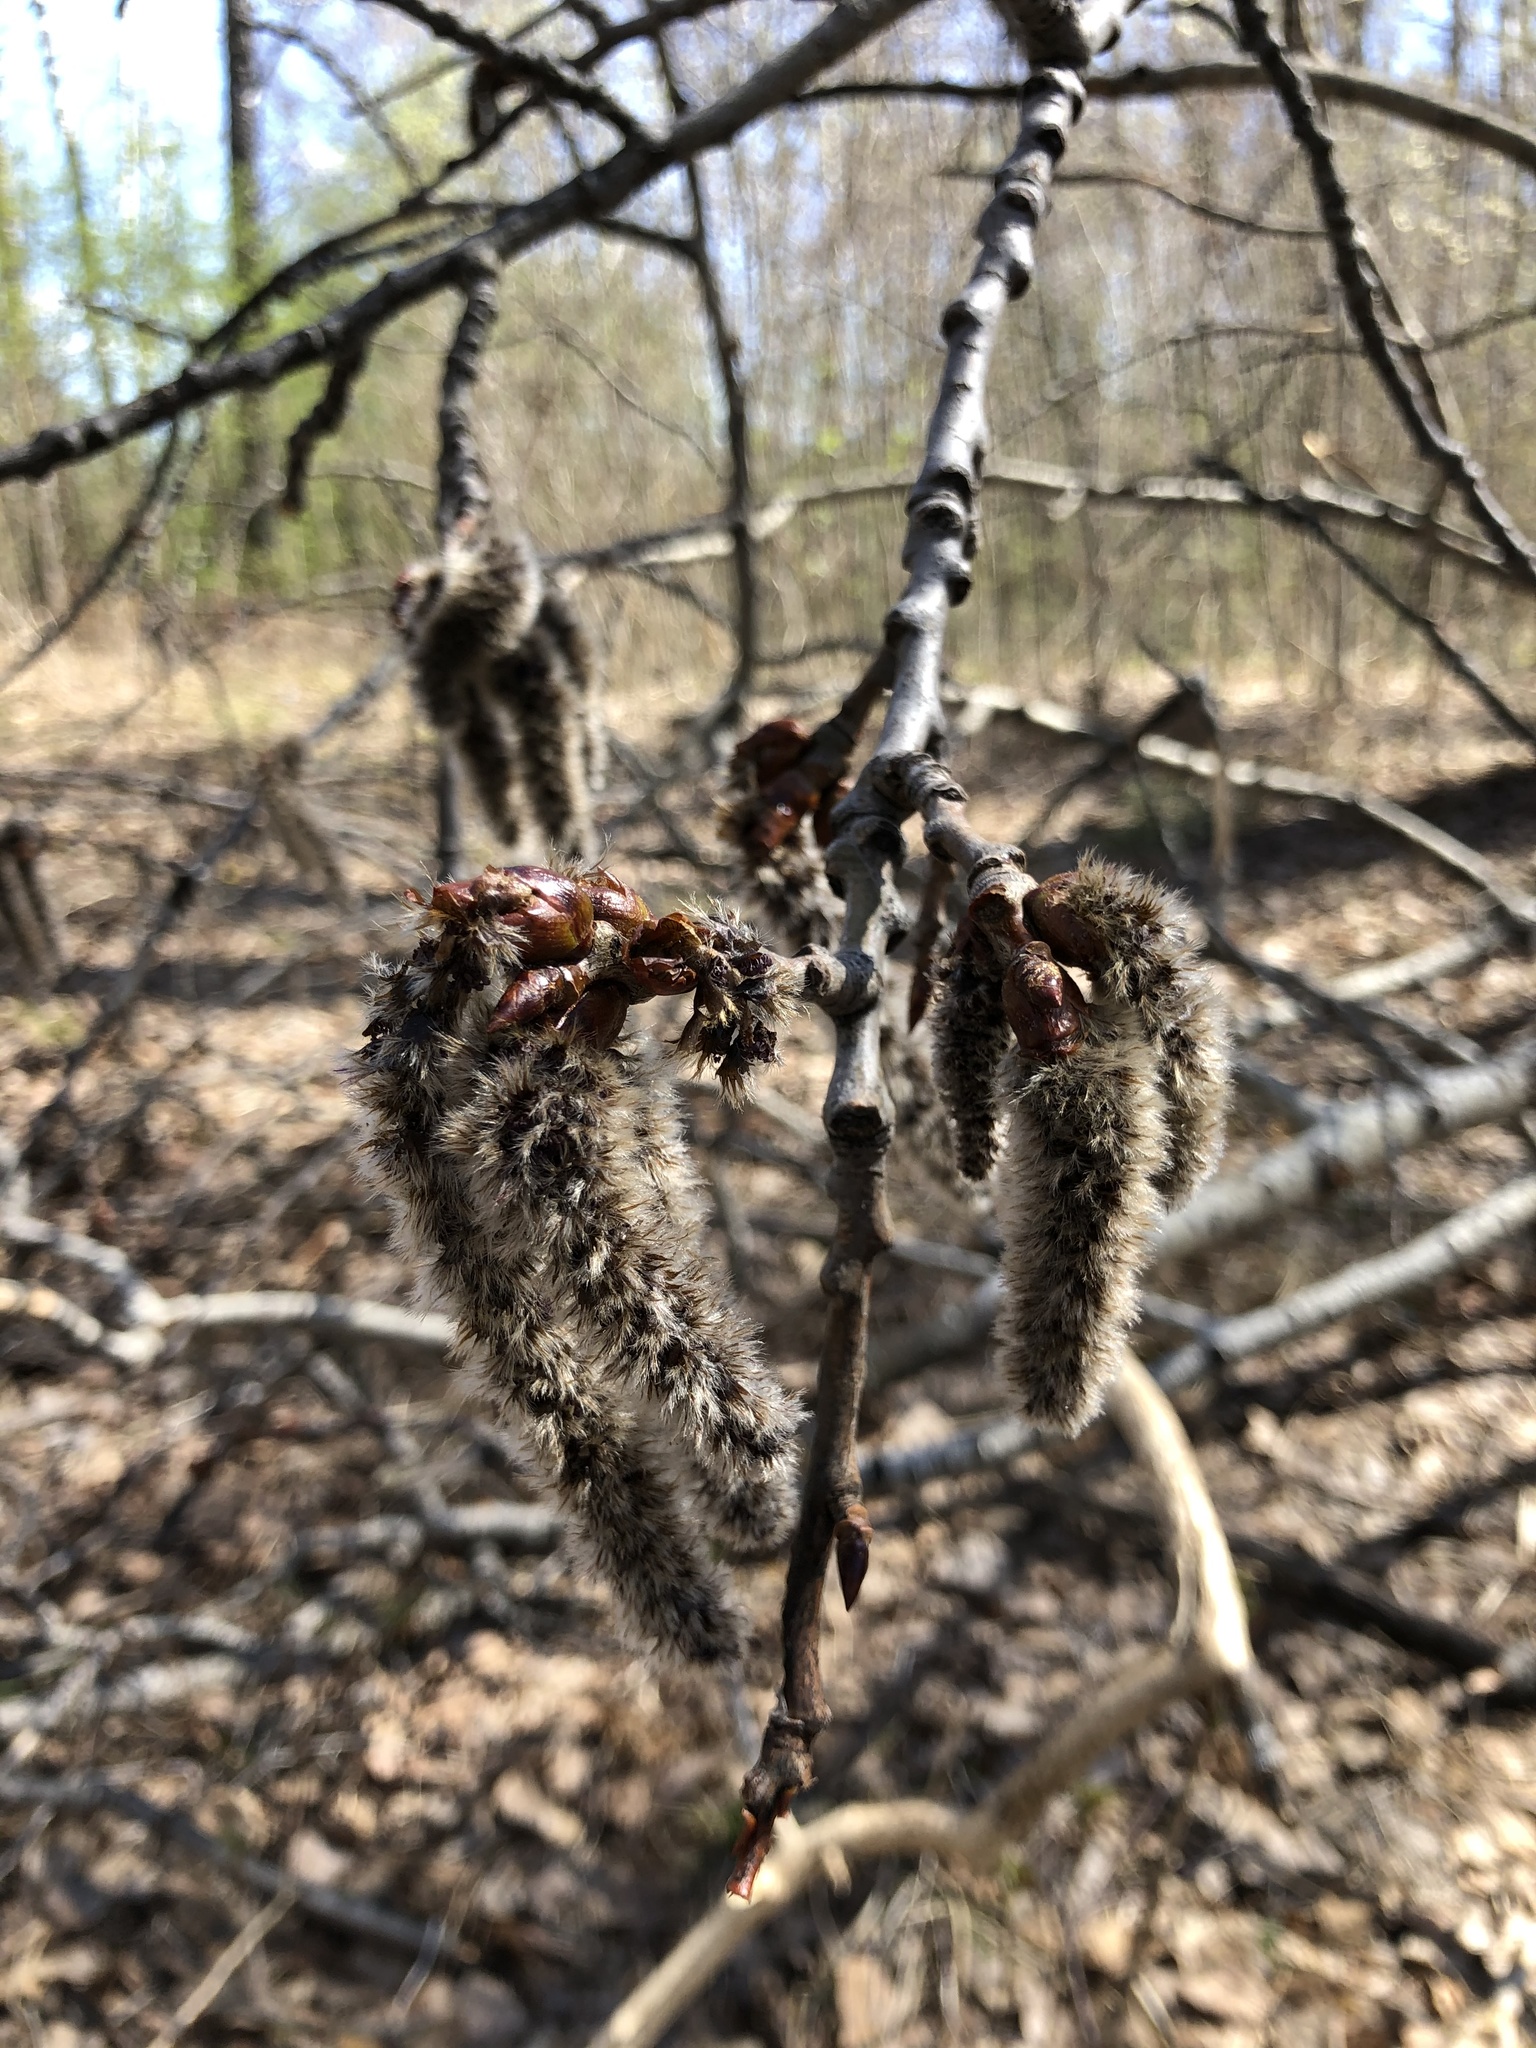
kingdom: Plantae
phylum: Tracheophyta
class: Magnoliopsida
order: Malpighiales
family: Salicaceae
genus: Populus
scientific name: Populus tremula
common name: European aspen
